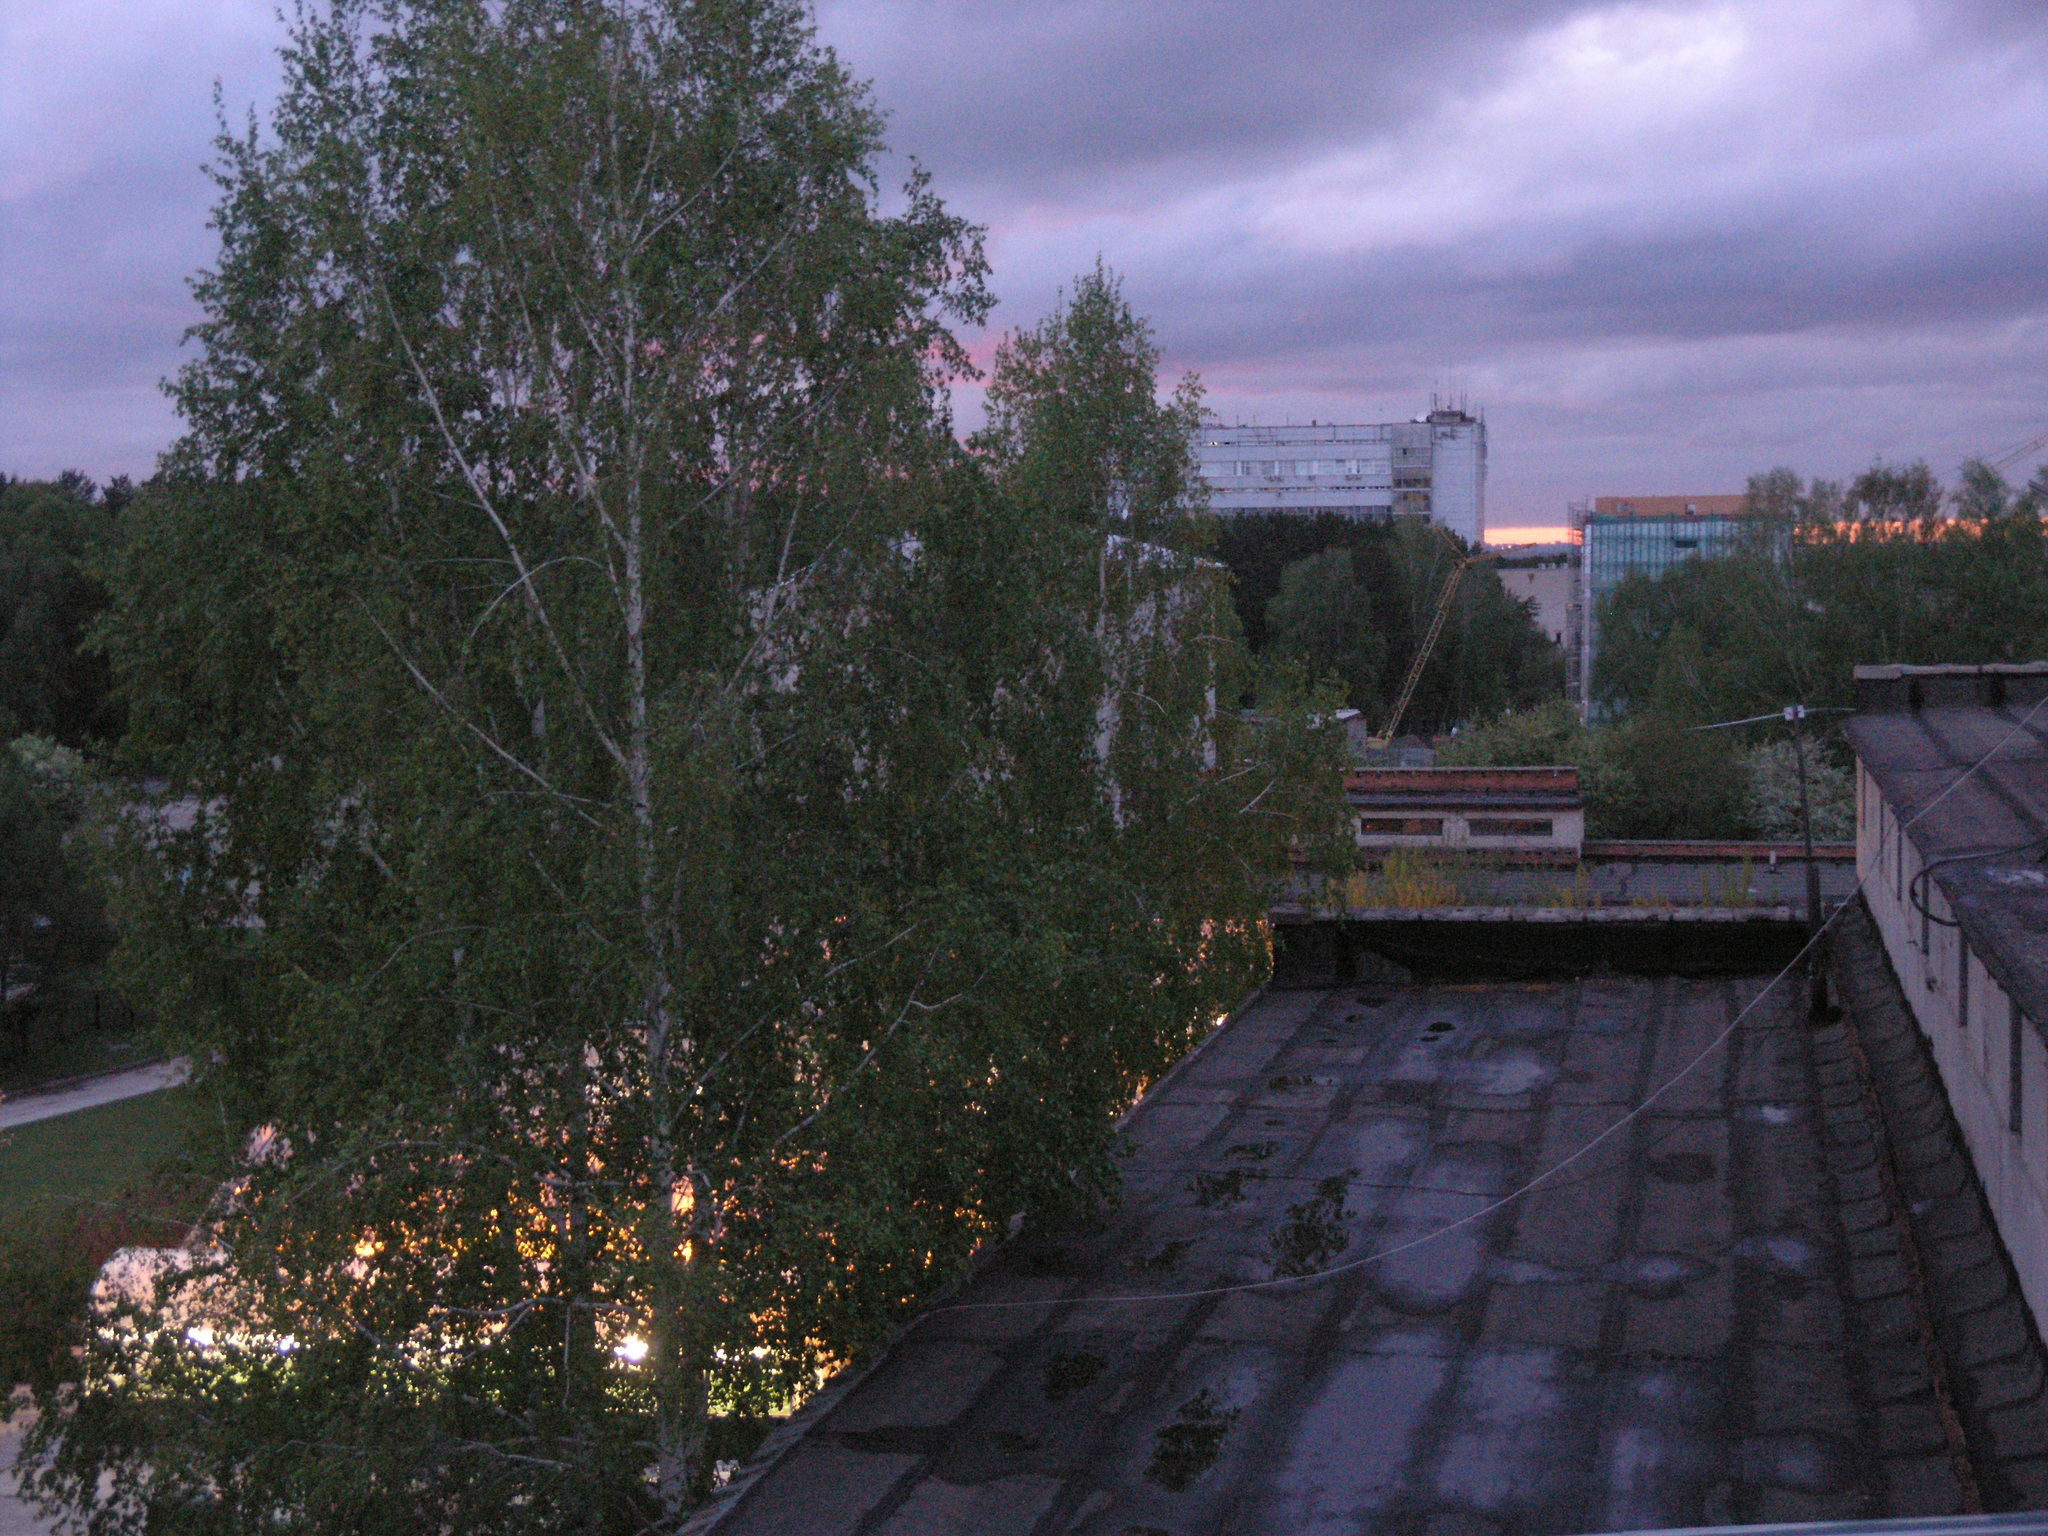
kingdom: Plantae
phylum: Tracheophyta
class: Magnoliopsida
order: Fagales
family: Betulaceae
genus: Betula
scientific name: Betula pendula
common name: Silver birch
